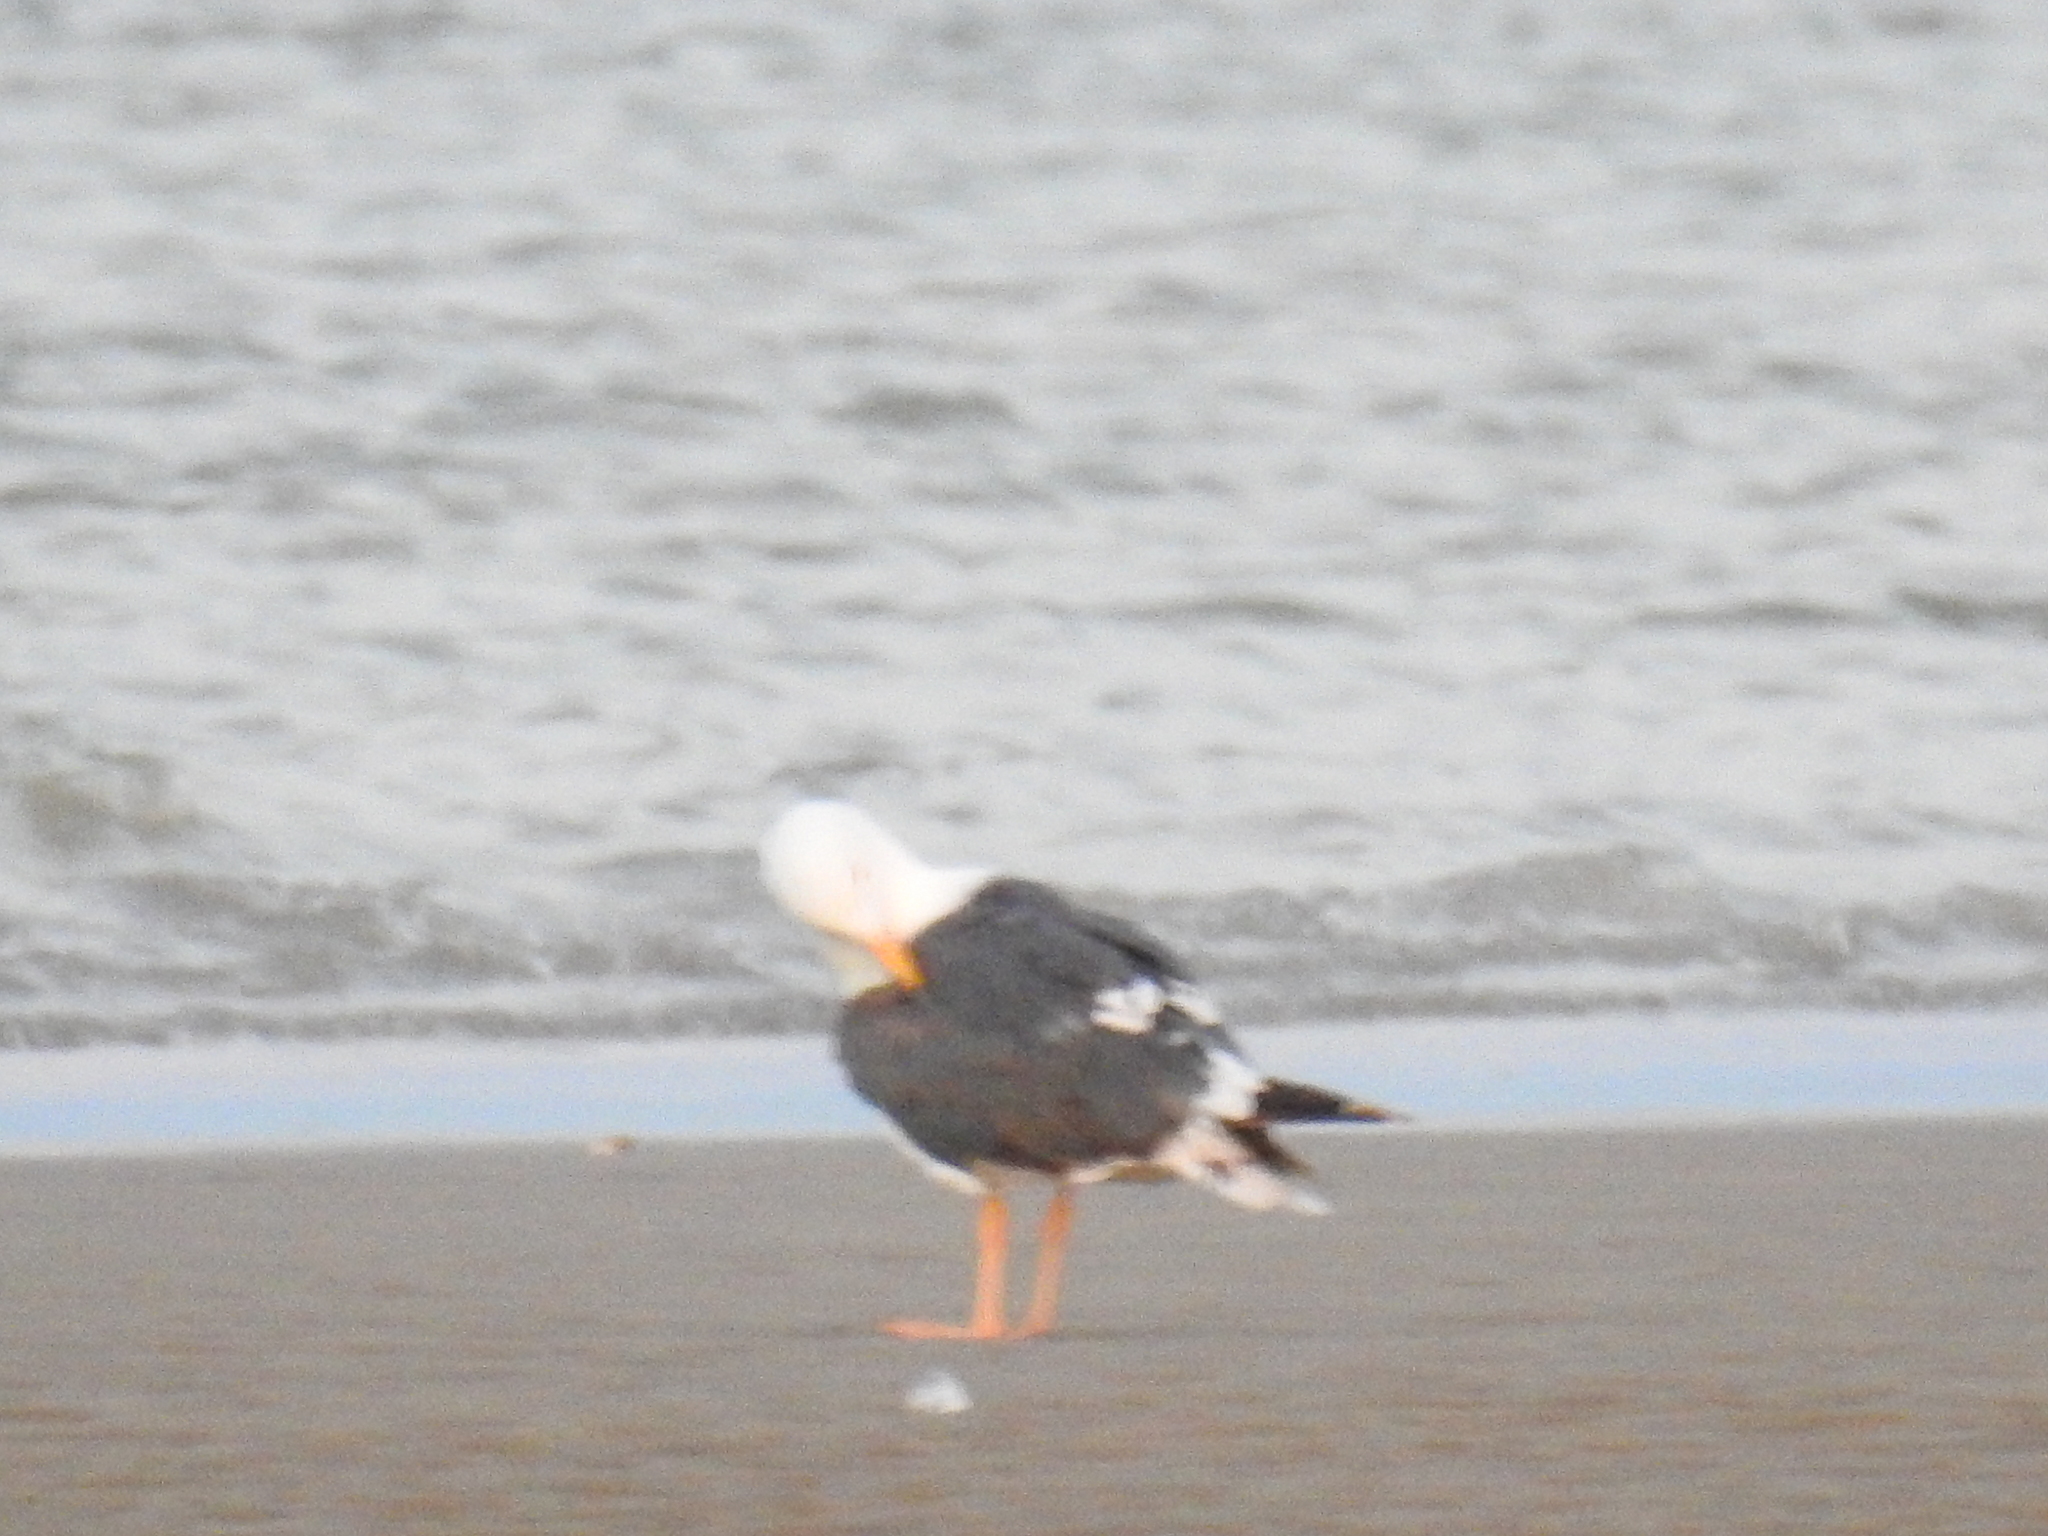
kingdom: Animalia
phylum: Chordata
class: Aves
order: Charadriiformes
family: Laridae
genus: Larus
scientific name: Larus livens
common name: Yellow-footed gull
